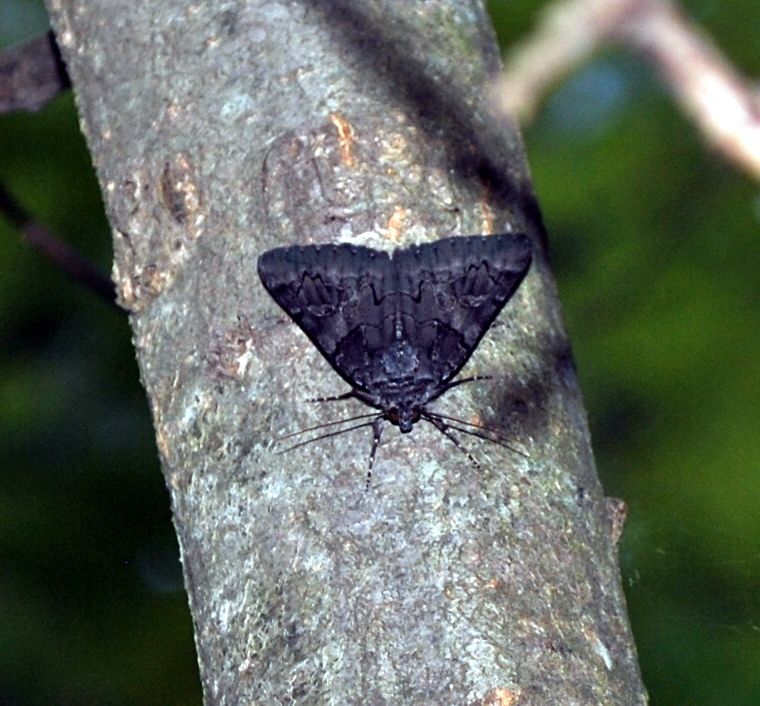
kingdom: Animalia
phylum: Arthropoda
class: Insecta
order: Lepidoptera
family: Erebidae
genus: Catocala
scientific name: Catocala antinympha
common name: Sweetfern underwing
